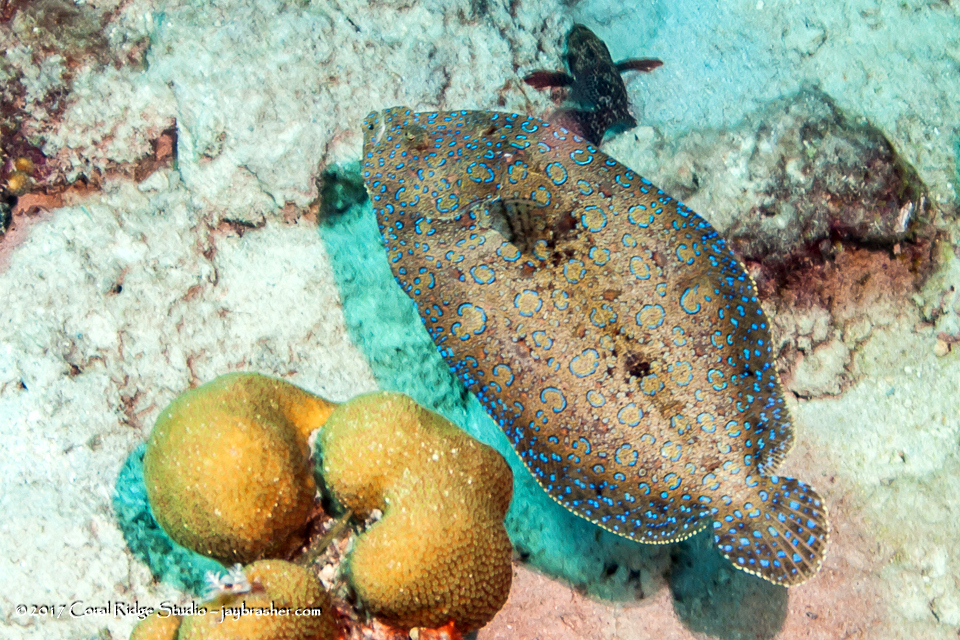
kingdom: Animalia
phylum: Chordata
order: Pleuronectiformes
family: Bothidae
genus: Bothus
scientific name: Bothus lunatus
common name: Peacock flounder
